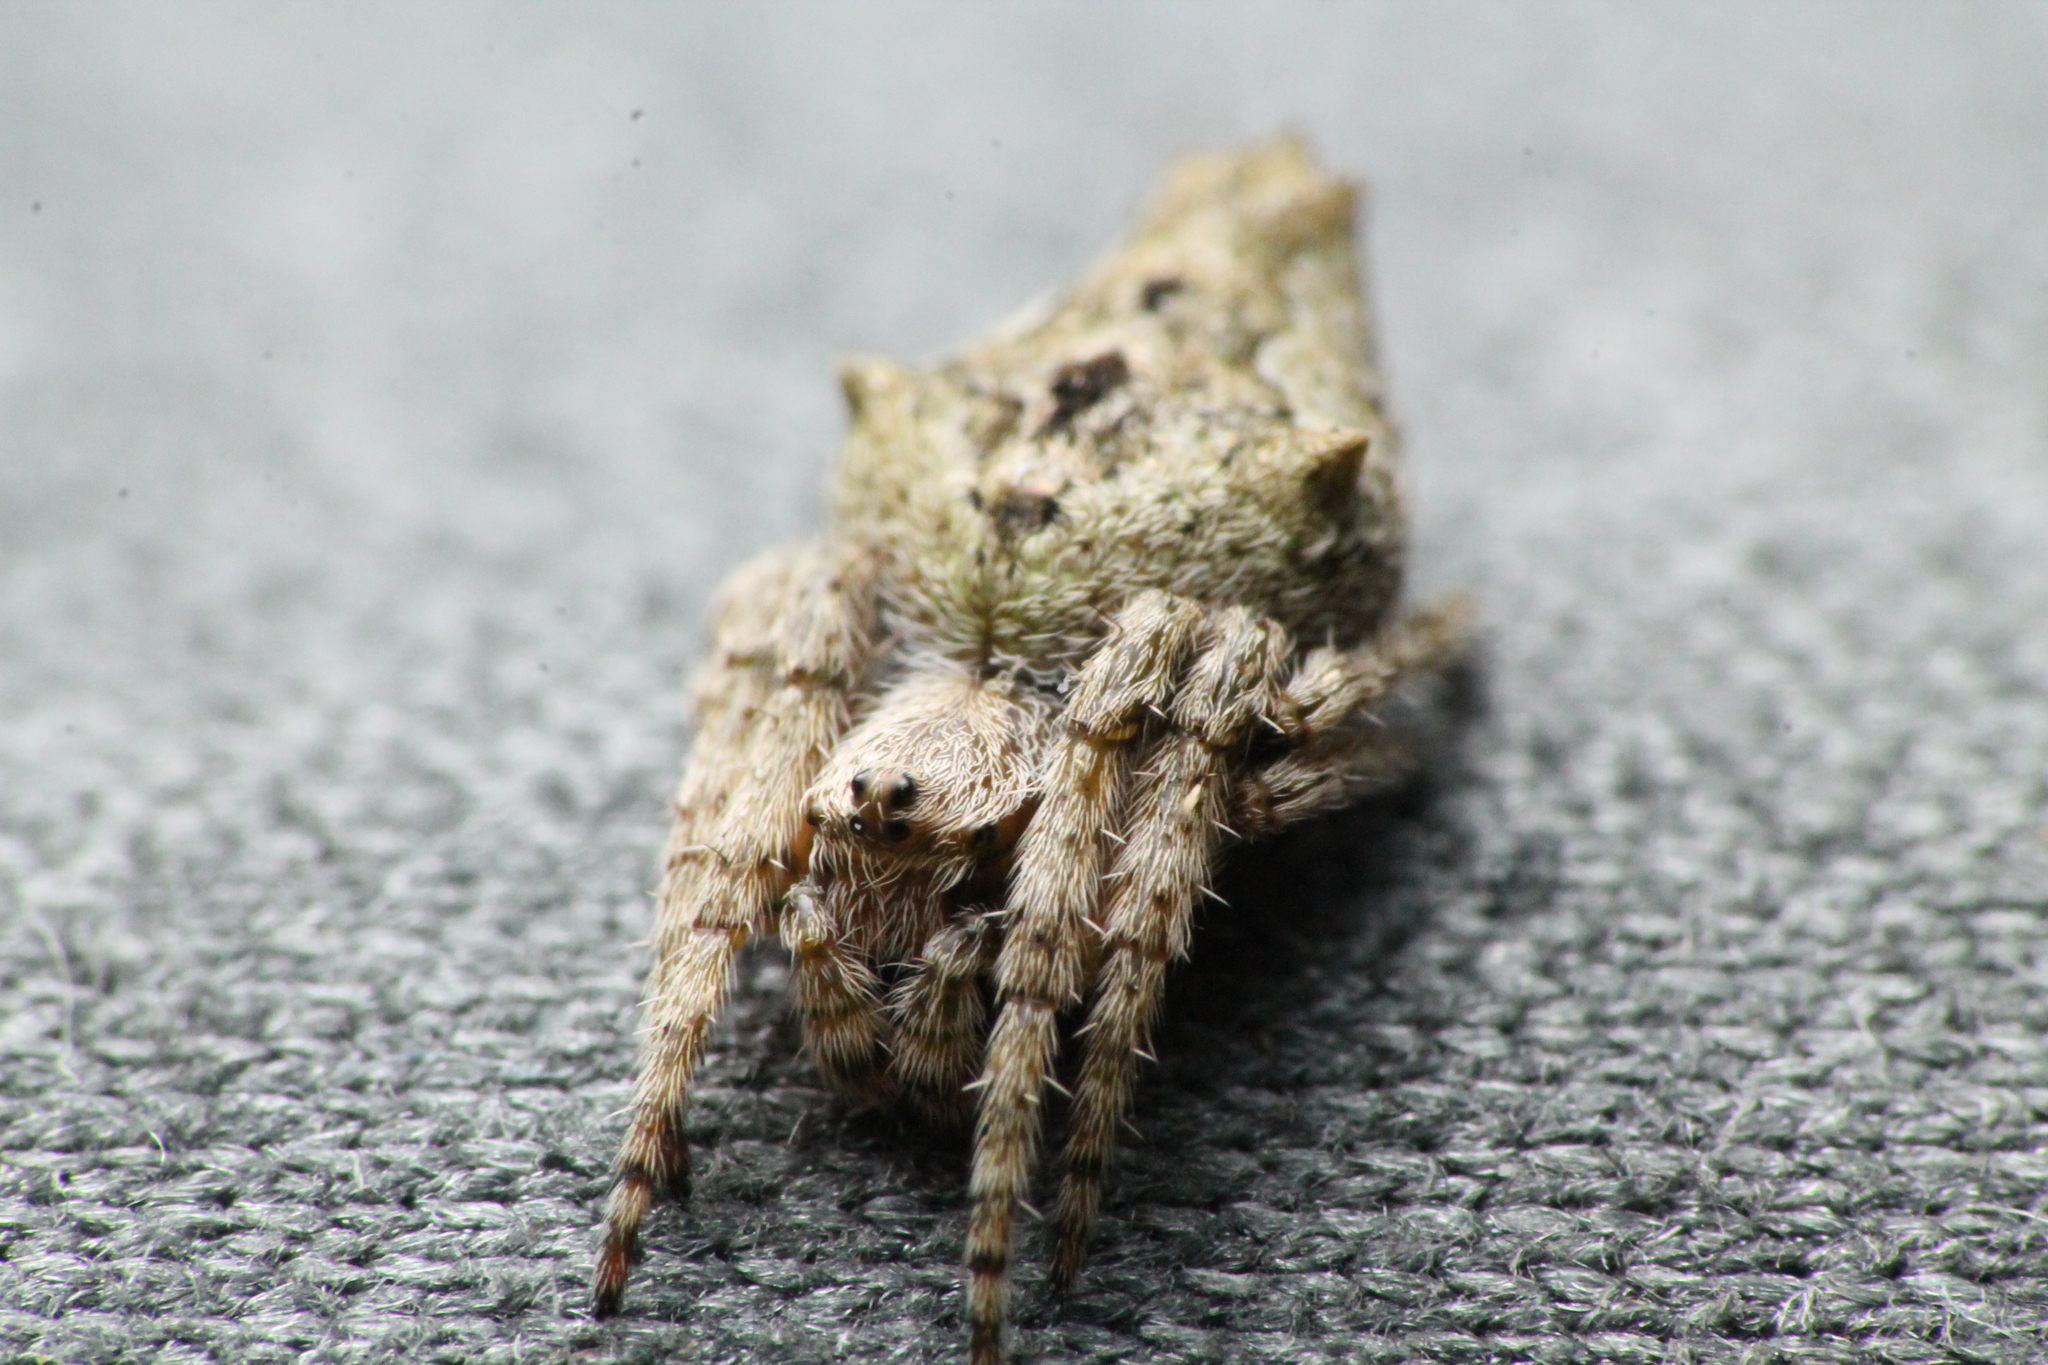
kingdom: Animalia
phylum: Arthropoda
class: Arachnida
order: Araneae
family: Araneidae
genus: Eriophora
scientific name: Eriophora pustulosa
